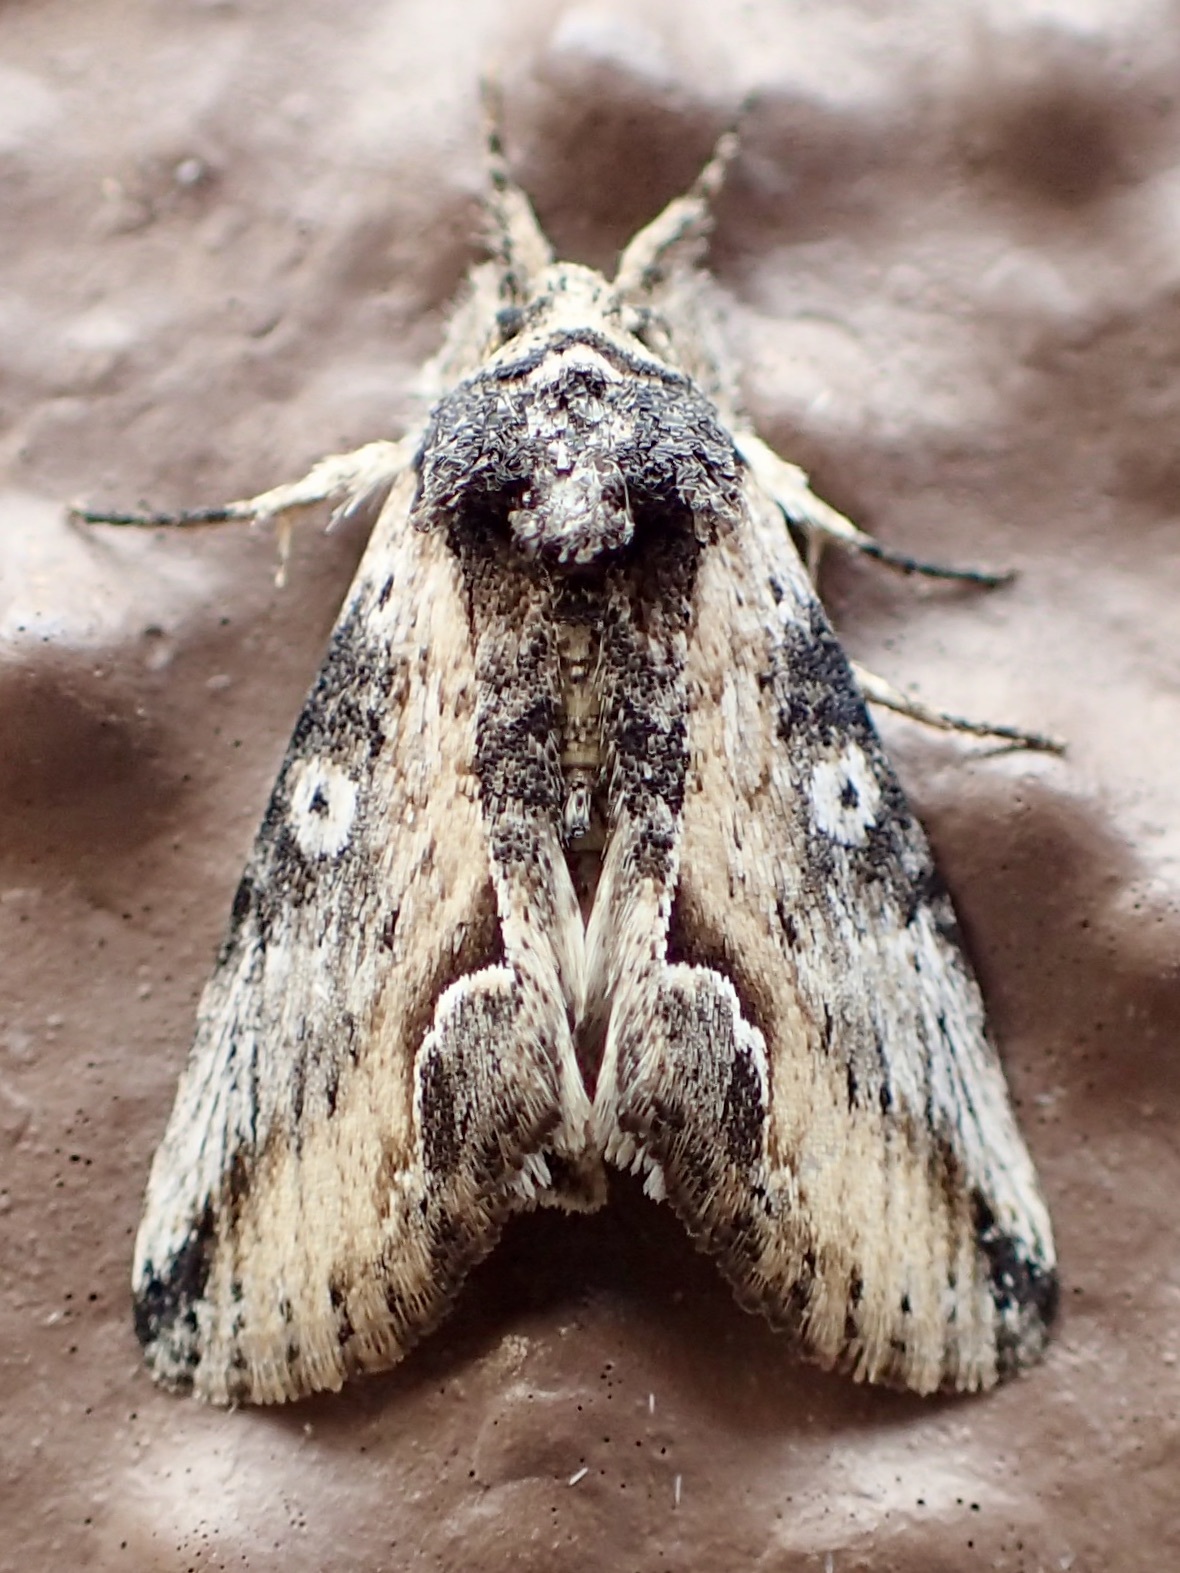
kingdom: Animalia
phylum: Arthropoda
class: Insecta
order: Lepidoptera
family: Noctuidae
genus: Prothrinax
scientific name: Prothrinax luteomedia
